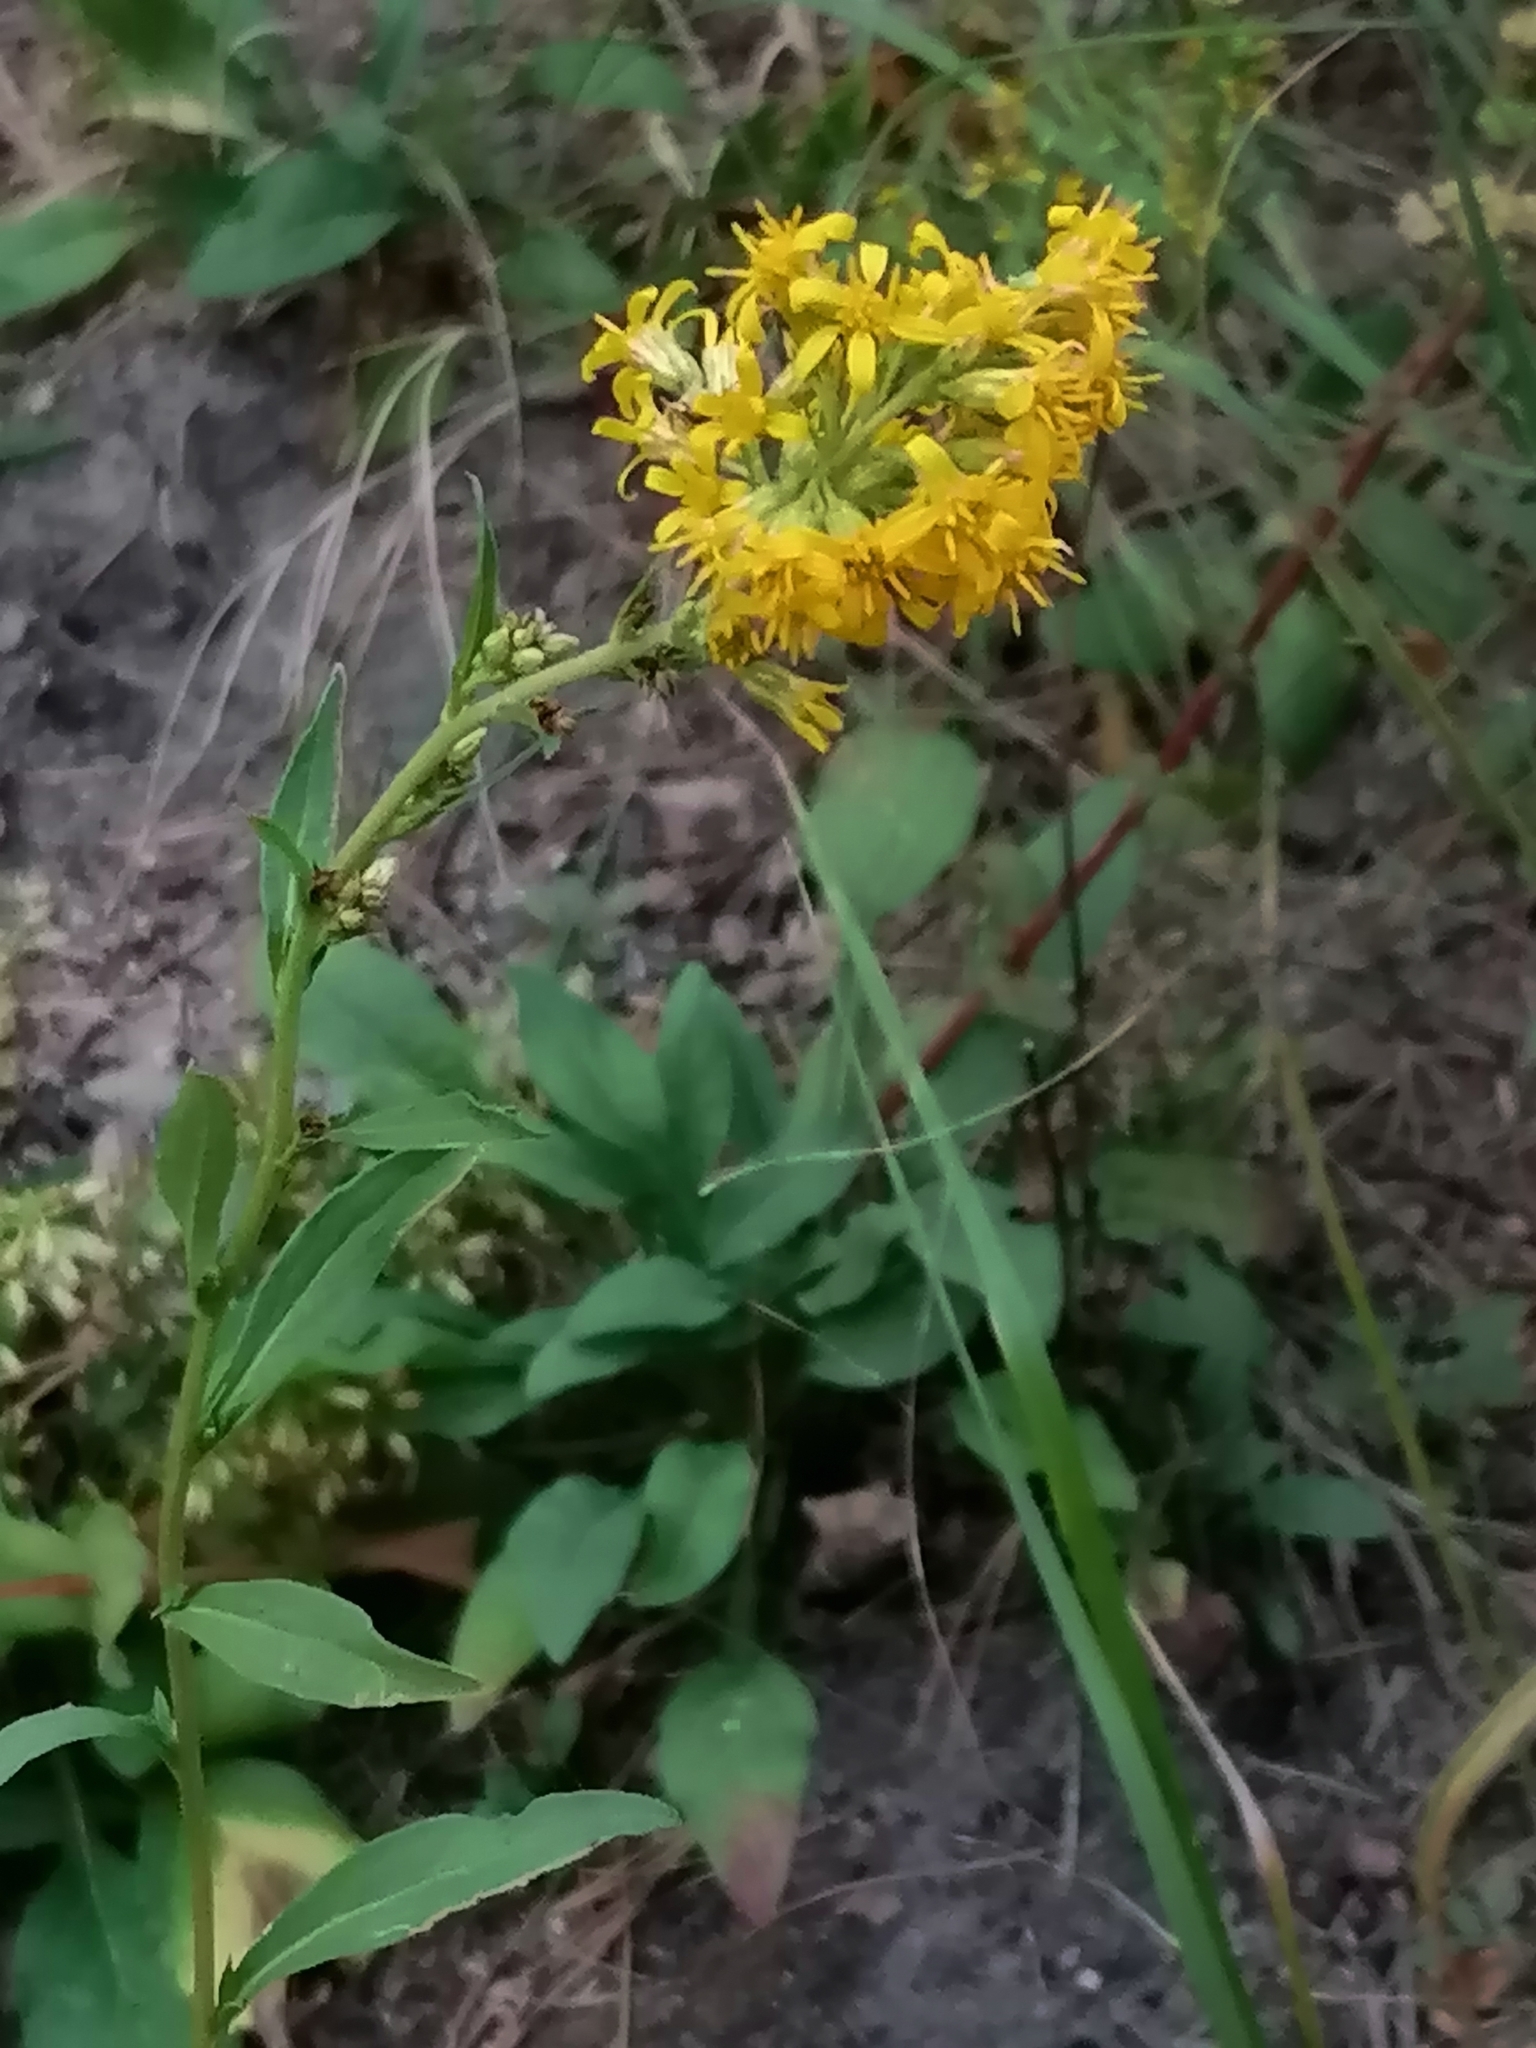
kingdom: Plantae
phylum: Tracheophyta
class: Magnoliopsida
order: Asterales
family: Asteraceae
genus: Solidago
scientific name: Solidago virgaurea
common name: Goldenrod
